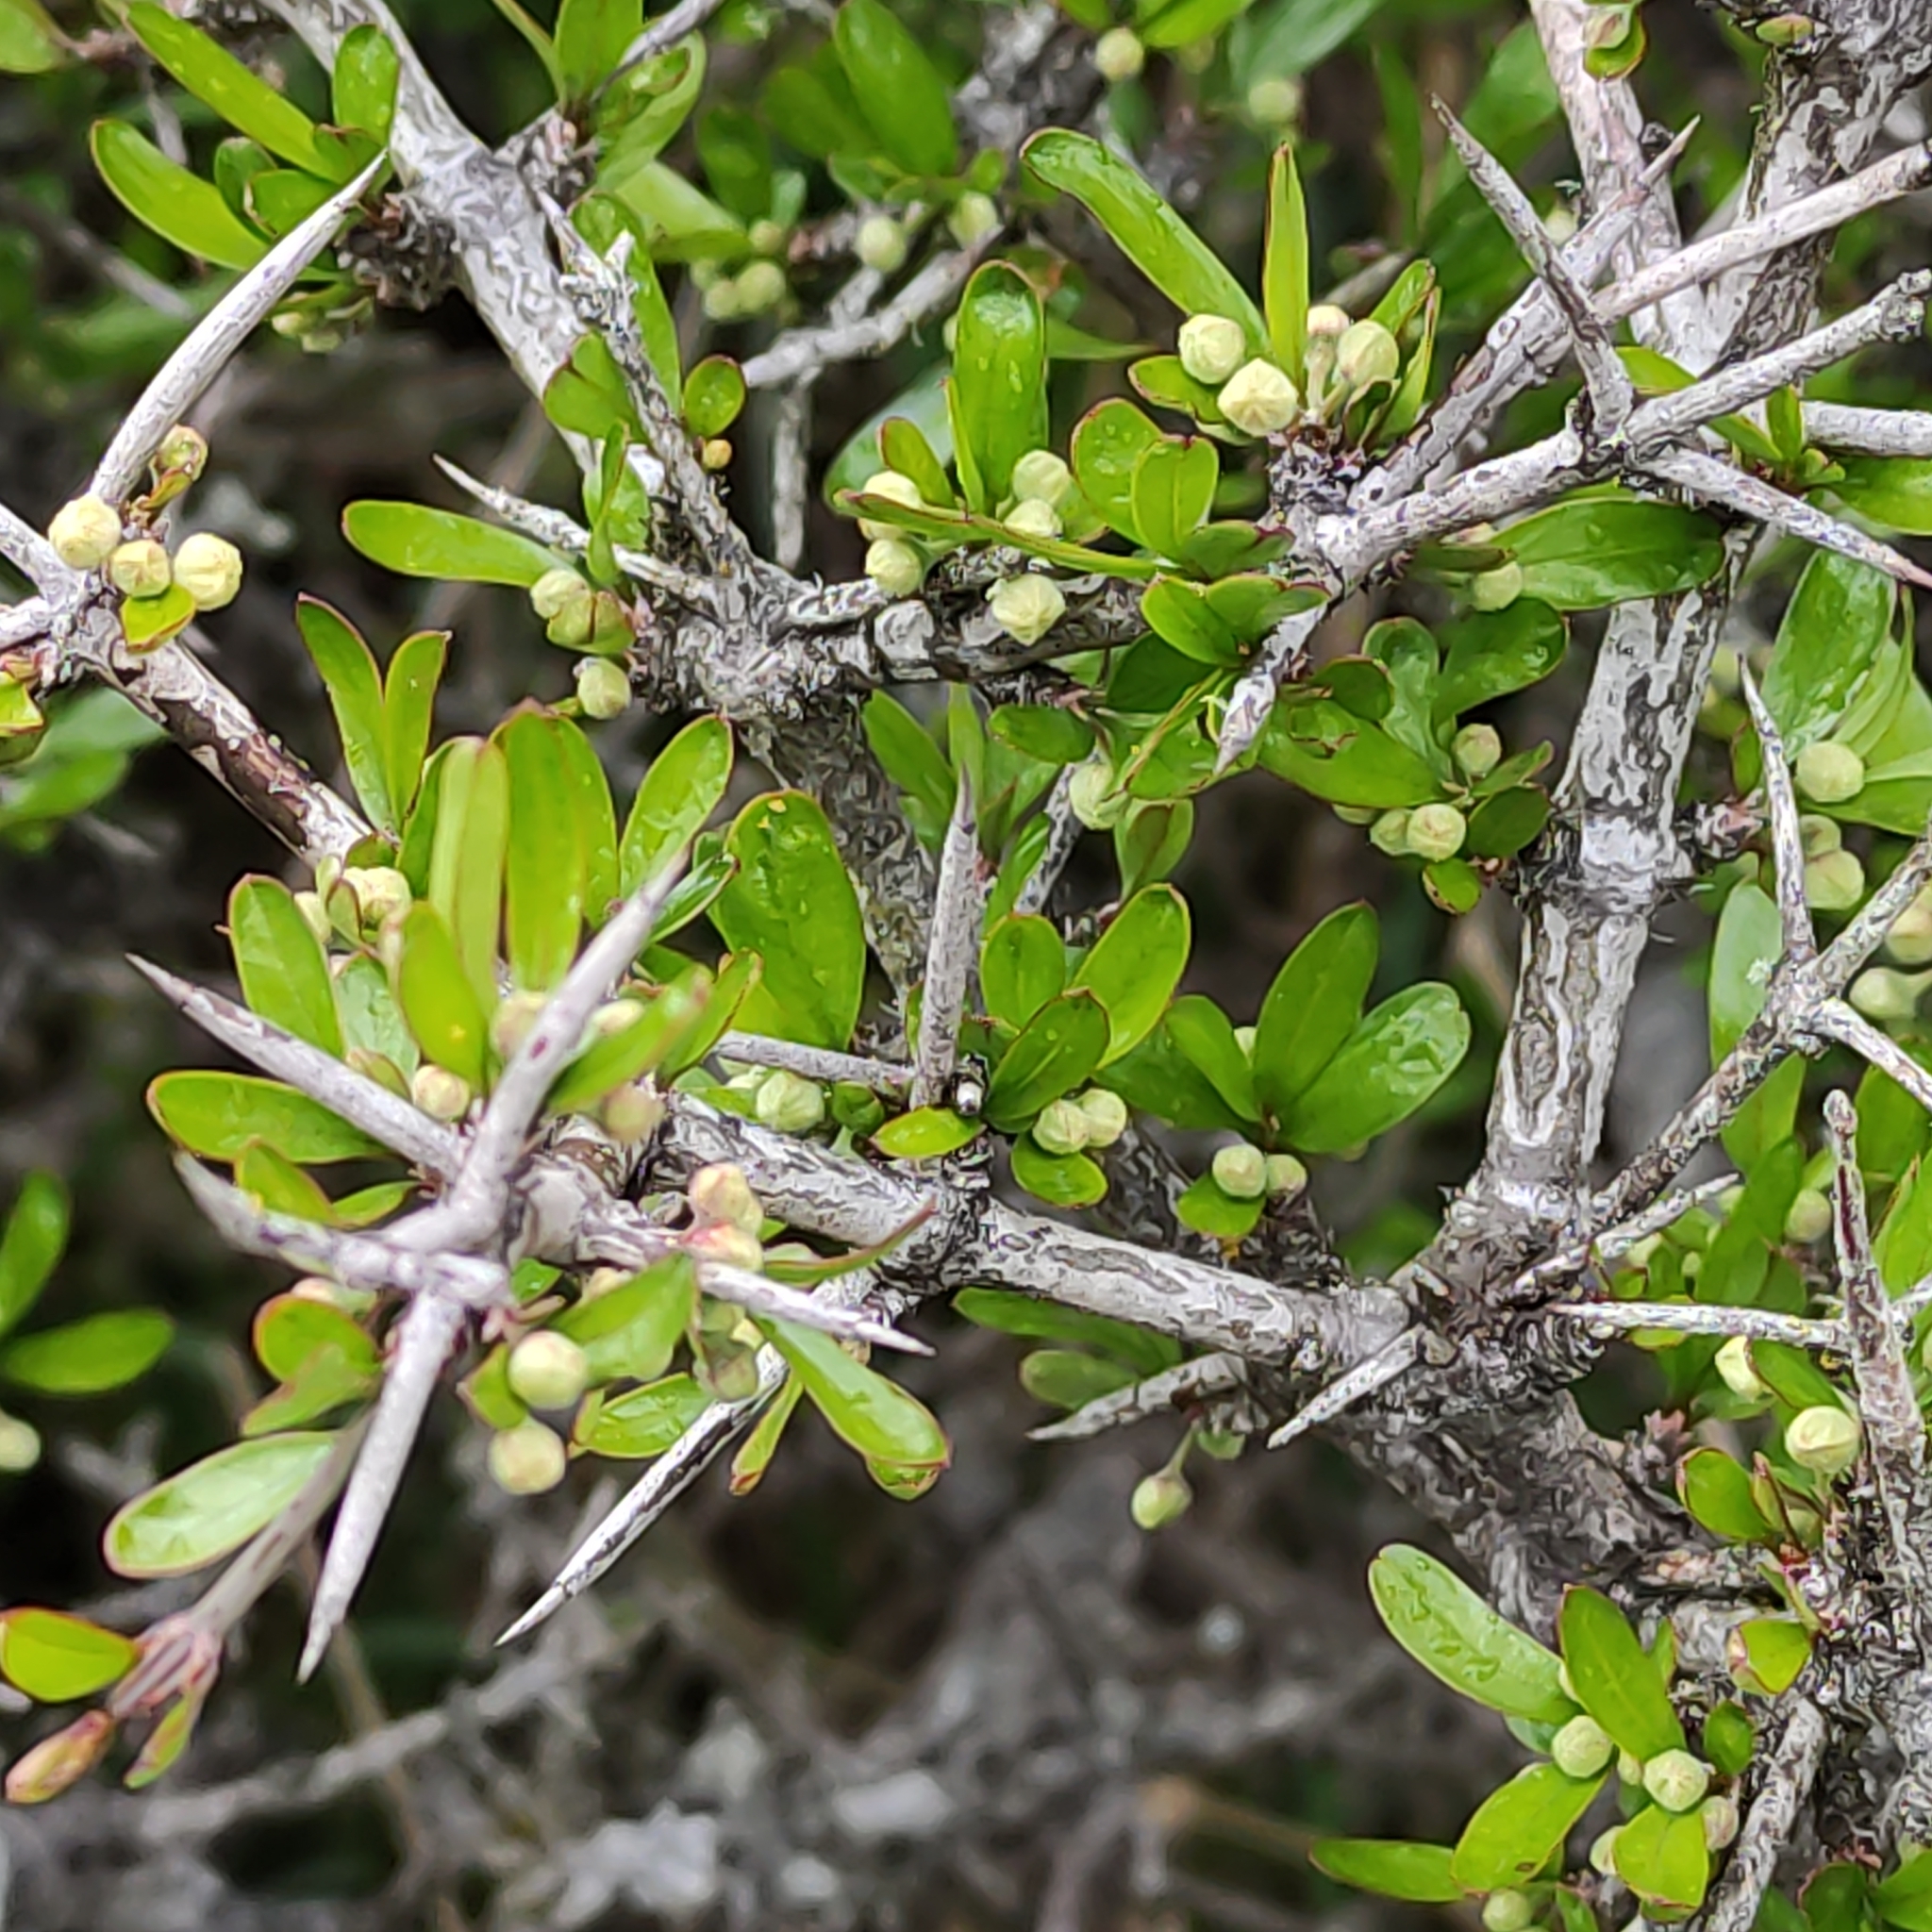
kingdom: Plantae
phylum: Tracheophyta
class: Magnoliopsida
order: Rosales
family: Rhamnaceae
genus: Discaria
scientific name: Discaria toumatou
